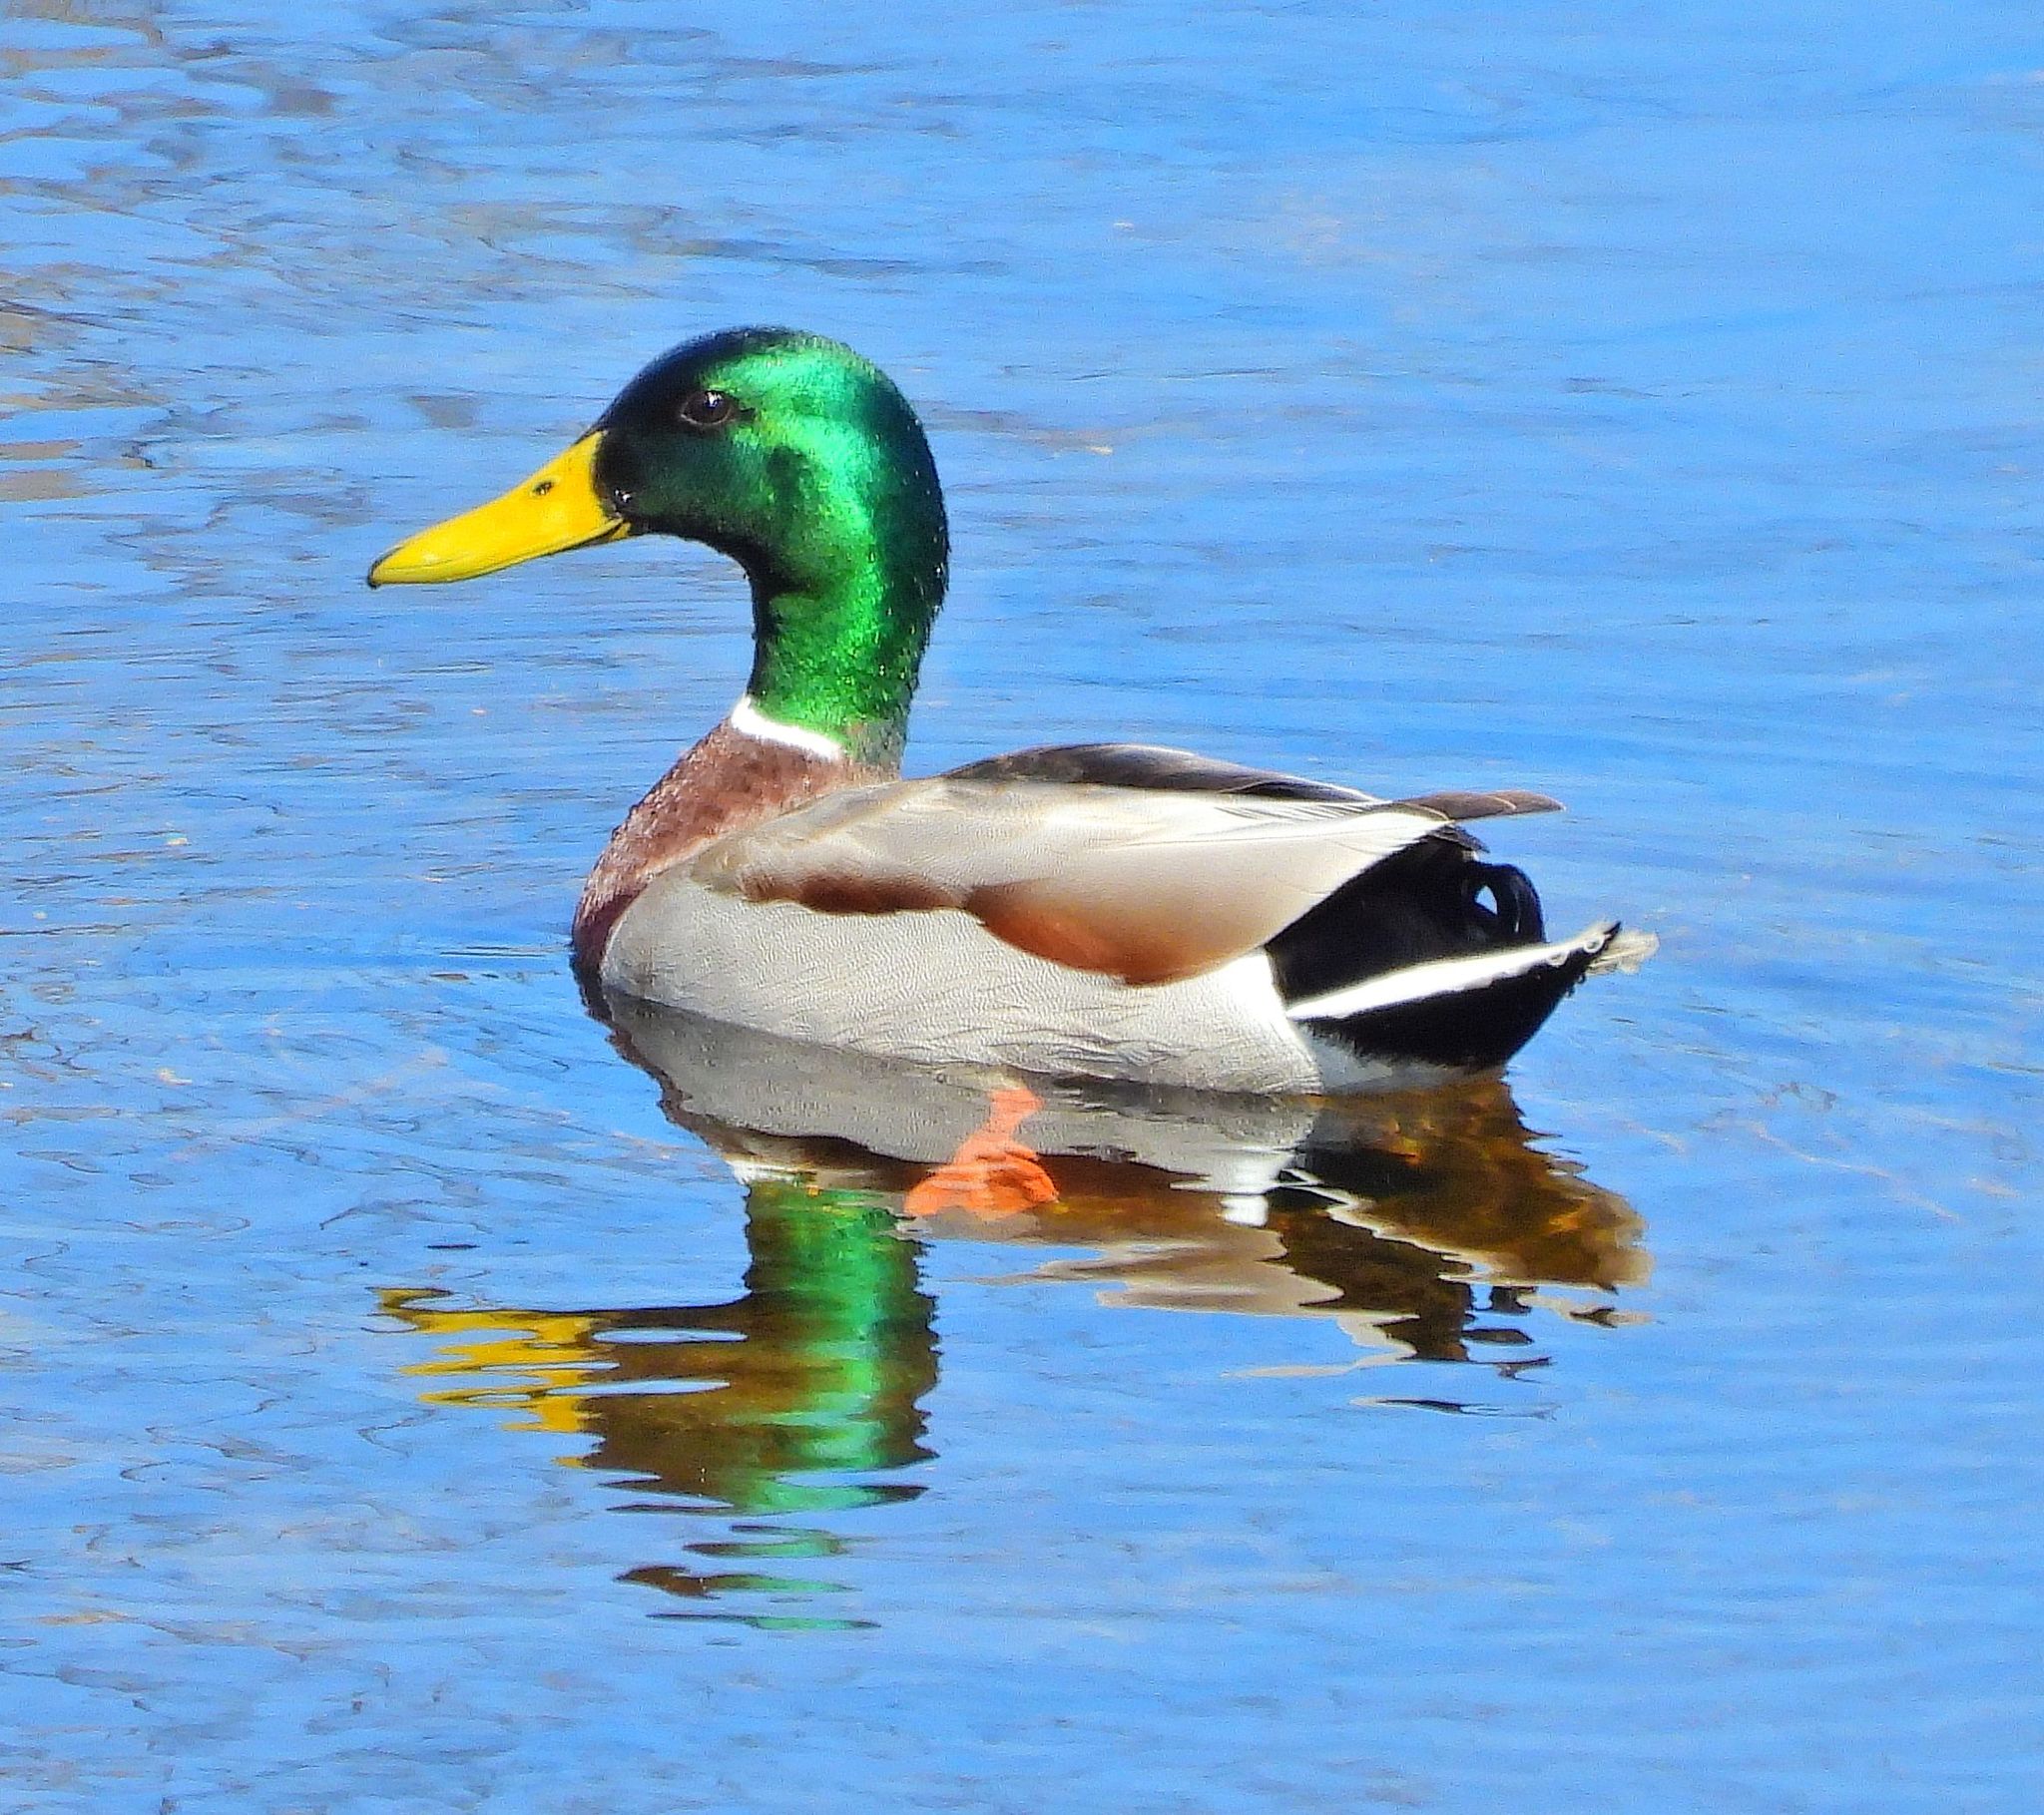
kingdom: Animalia
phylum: Chordata
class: Aves
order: Anseriformes
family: Anatidae
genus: Anas
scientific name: Anas platyrhynchos
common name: Mallard
